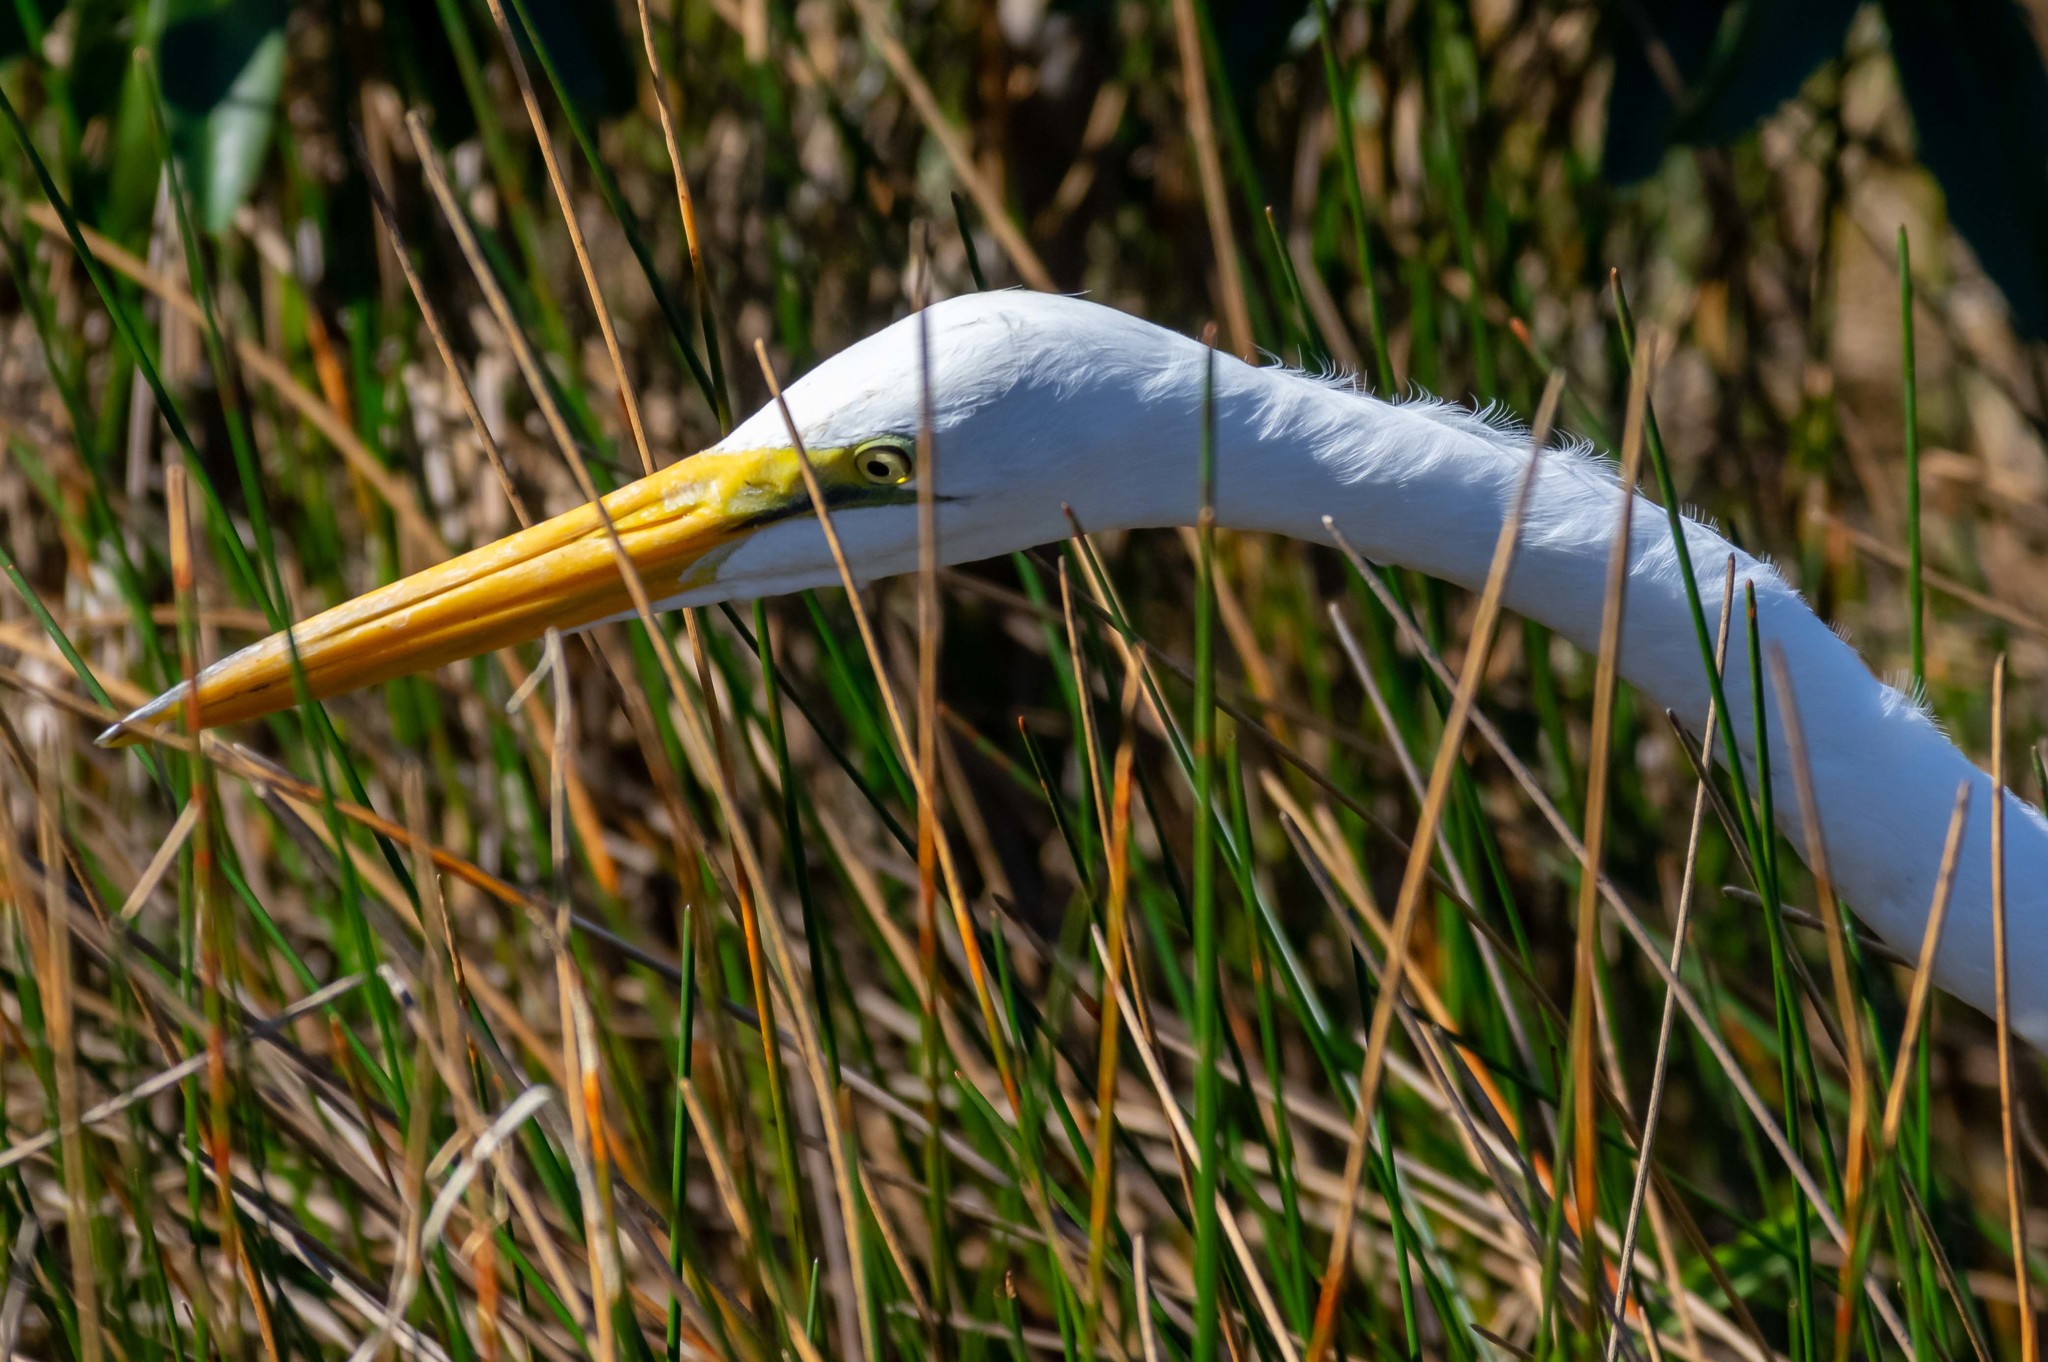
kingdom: Animalia
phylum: Chordata
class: Aves
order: Pelecaniformes
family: Ardeidae
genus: Ardea
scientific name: Ardea alba
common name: Great egret
